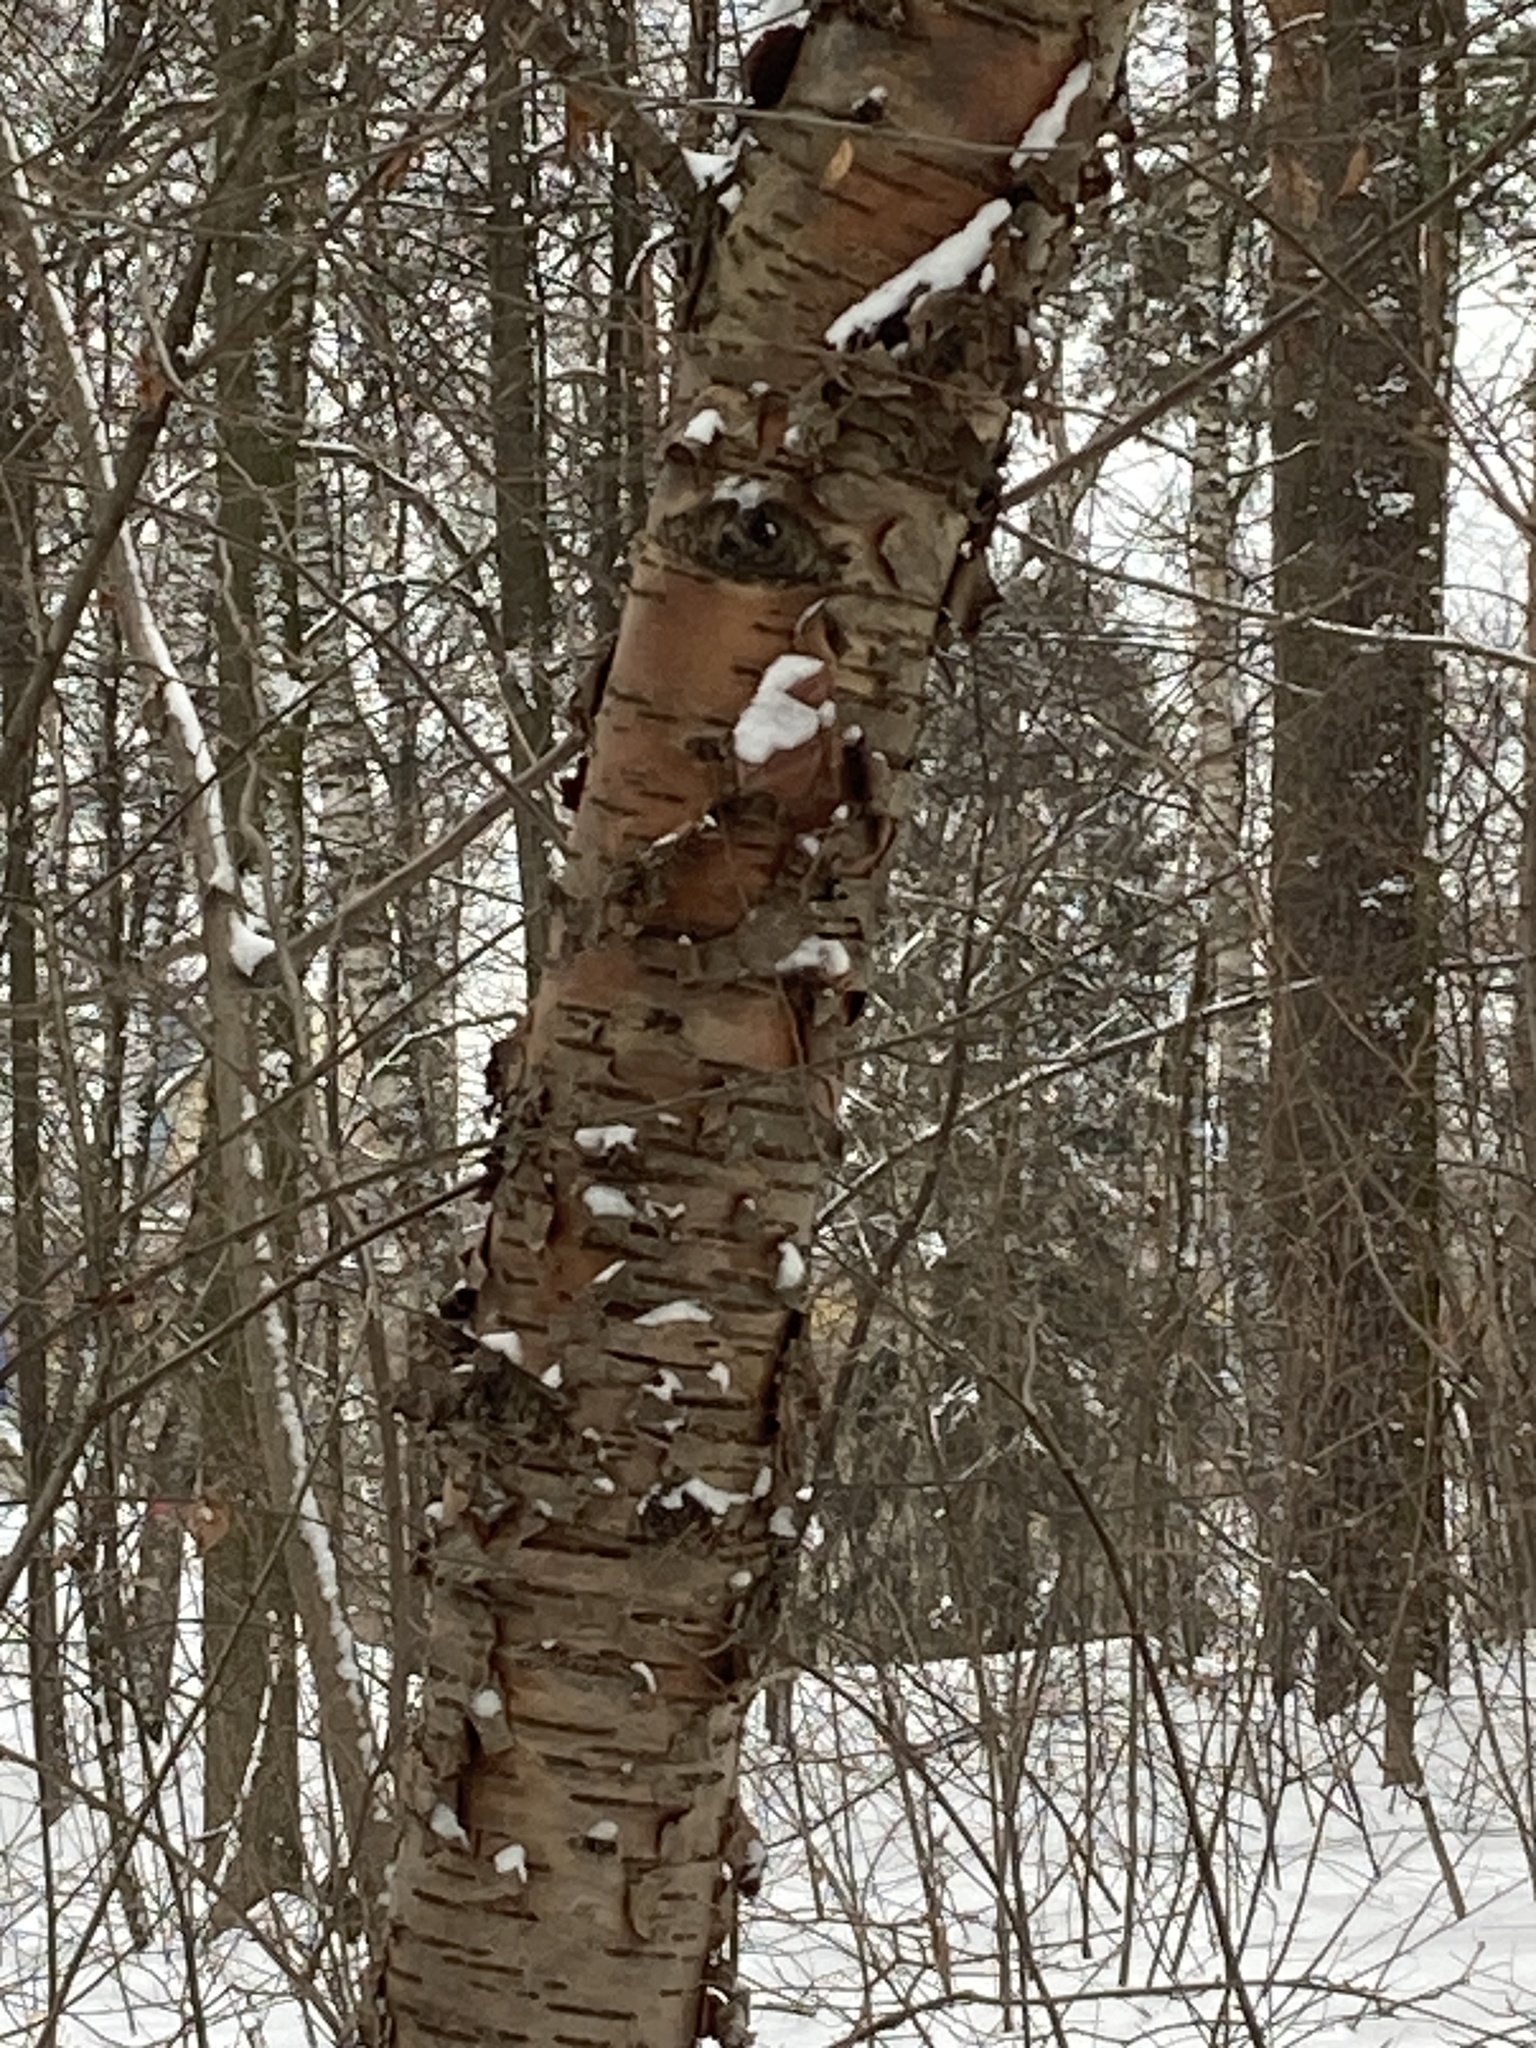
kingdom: Plantae
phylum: Tracheophyta
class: Magnoliopsida
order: Rosales
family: Rosaceae
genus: Prunus
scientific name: Prunus glandulifolia
